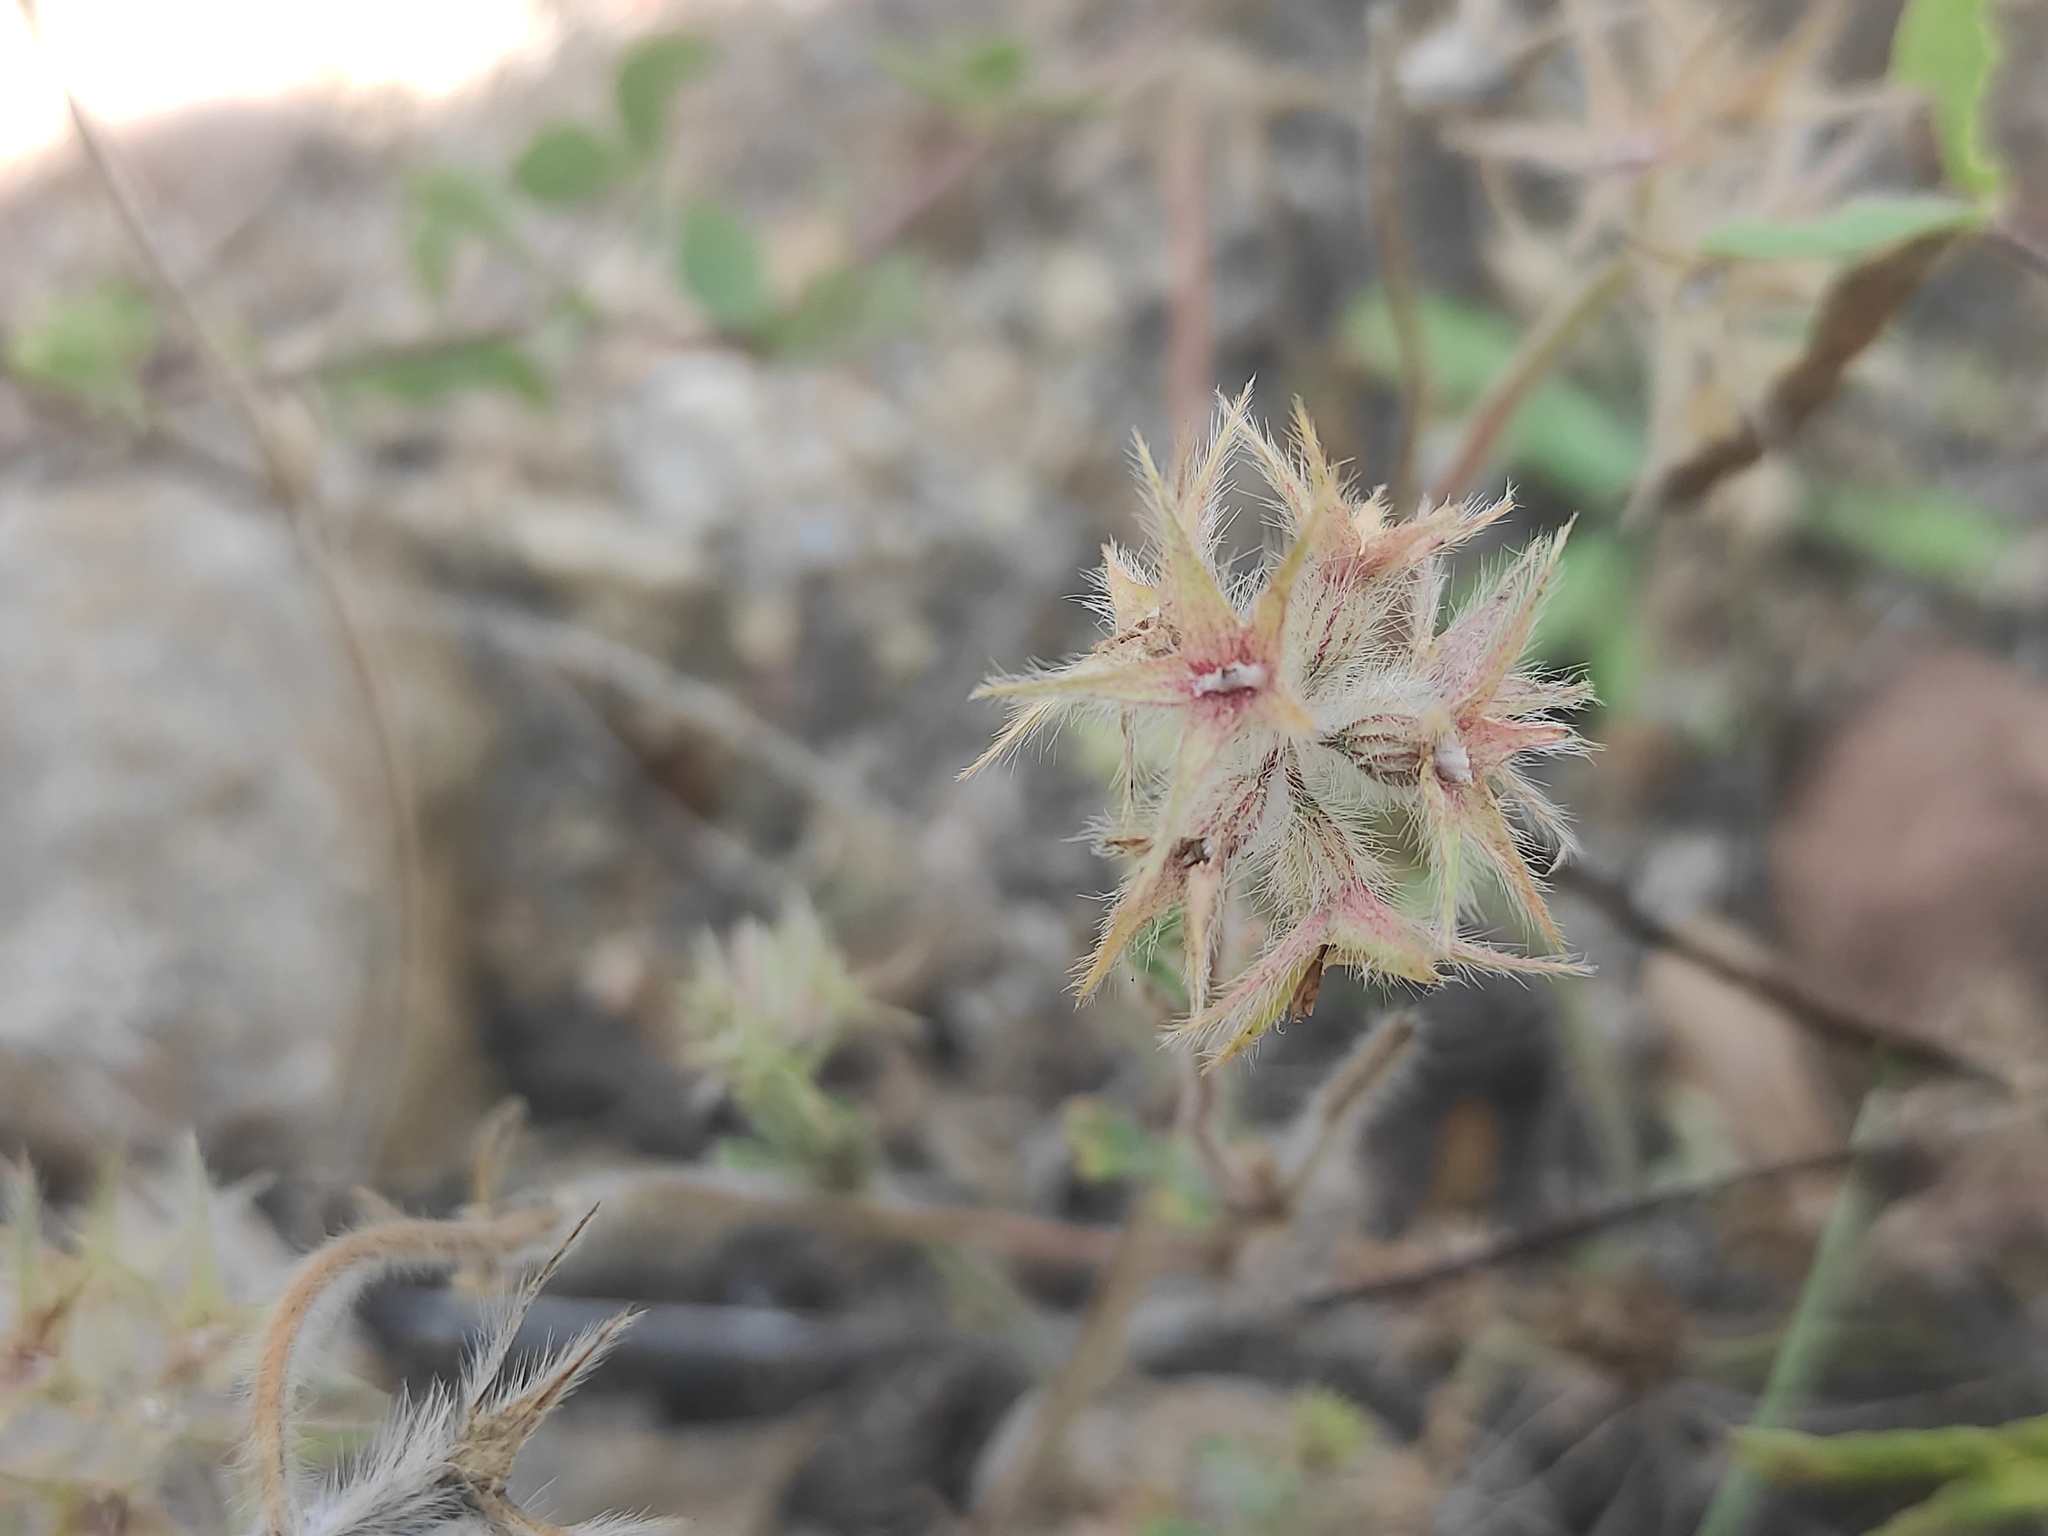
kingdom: Plantae
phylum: Tracheophyta
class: Magnoliopsida
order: Fabales
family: Fabaceae
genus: Trifolium
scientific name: Trifolium stellatum
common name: Starry clover
